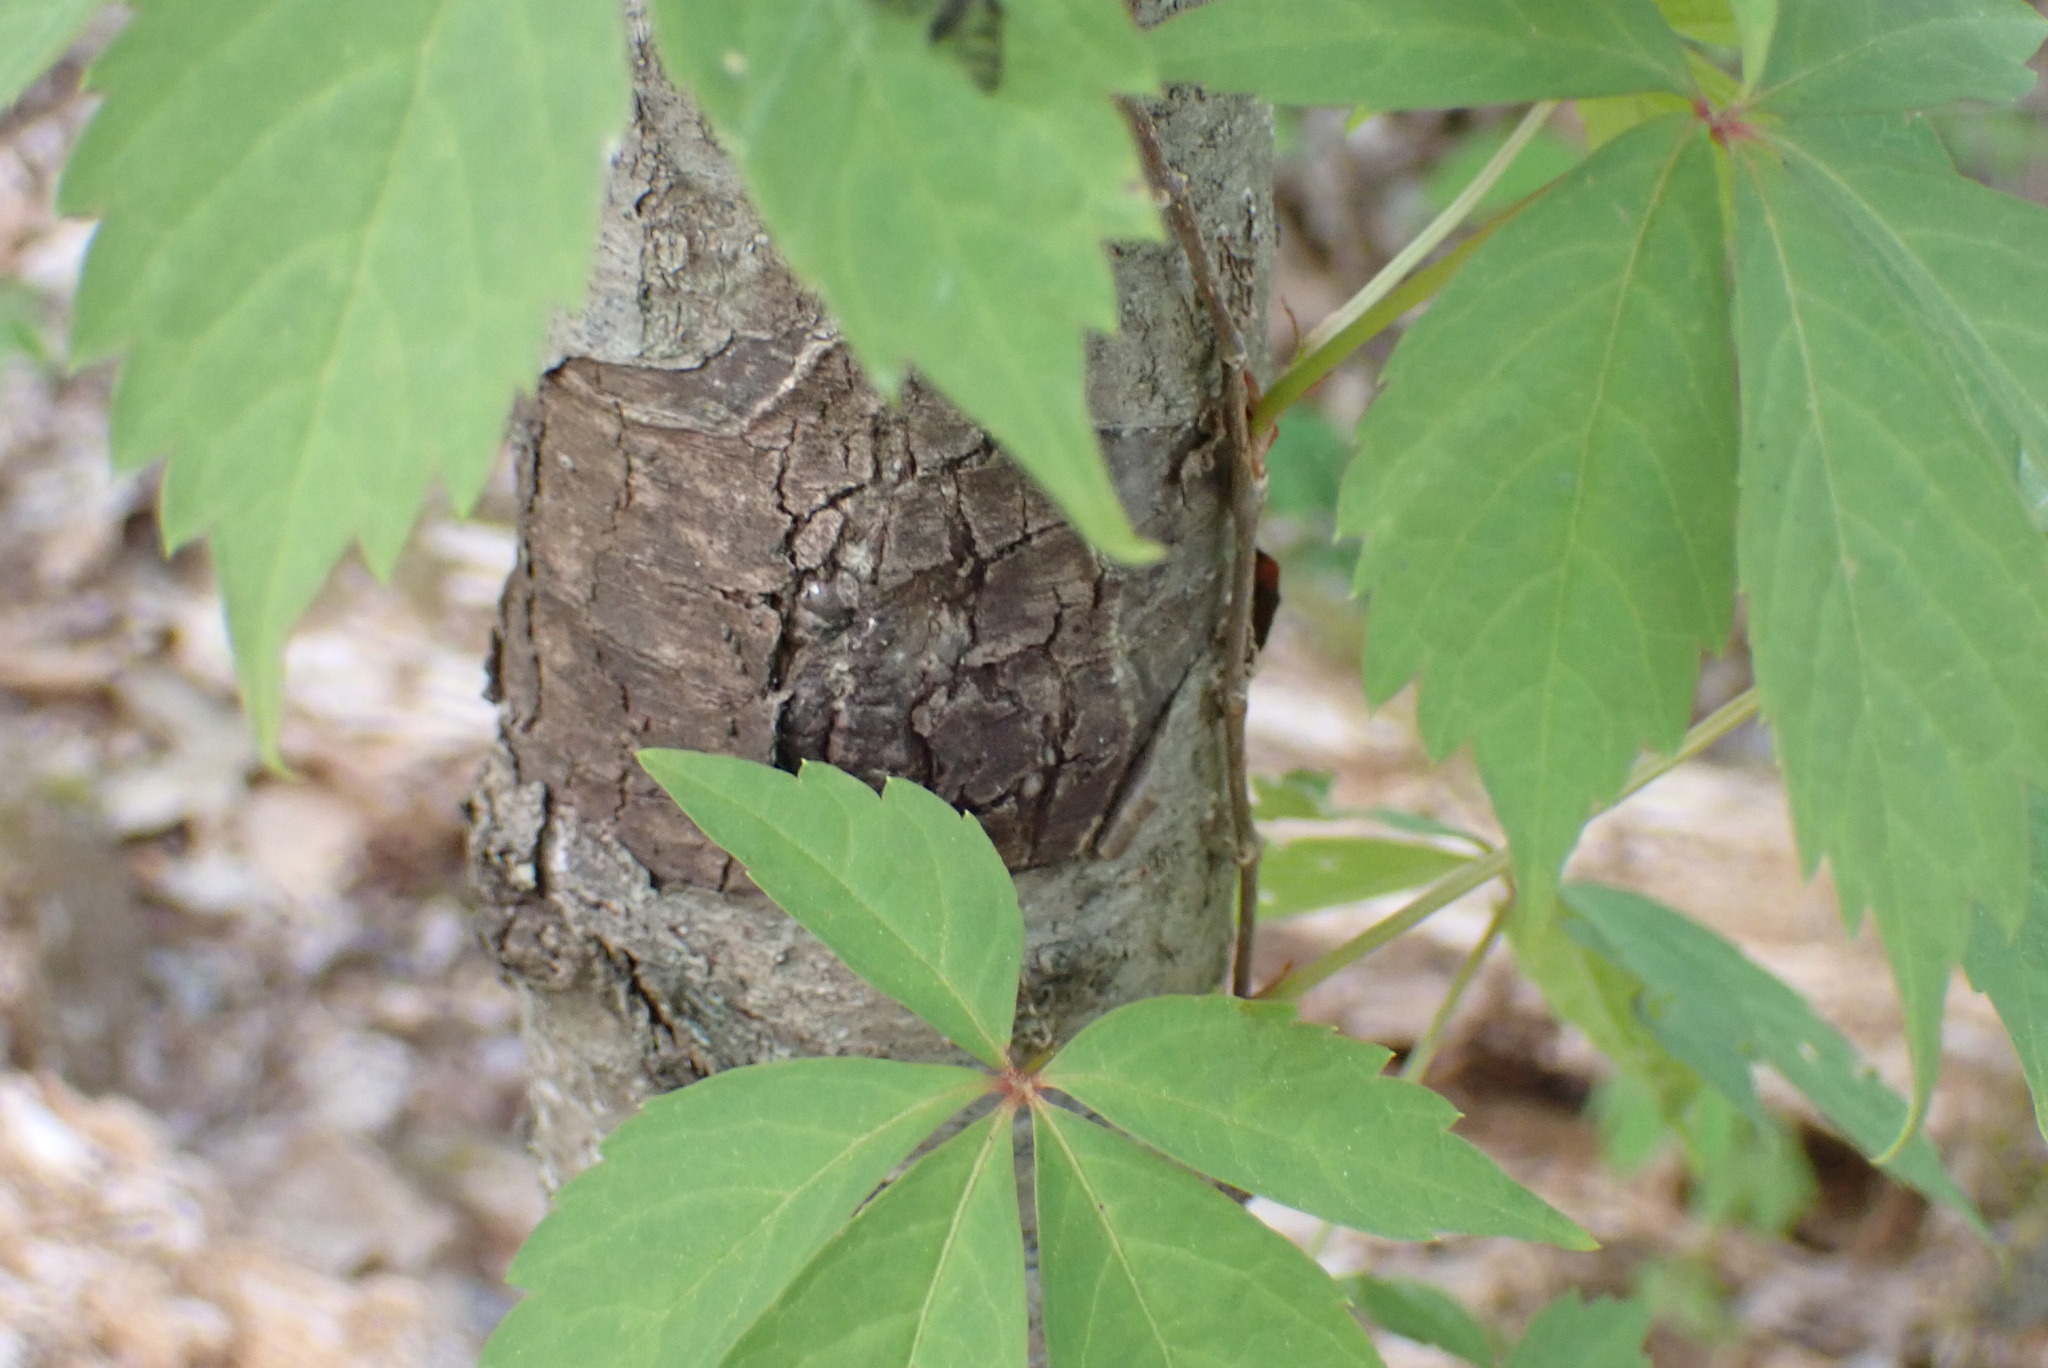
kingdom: Plantae
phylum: Tracheophyta
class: Magnoliopsida
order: Vitales
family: Vitaceae
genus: Parthenocissus
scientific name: Parthenocissus quinquefolia
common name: Virginia-creeper
